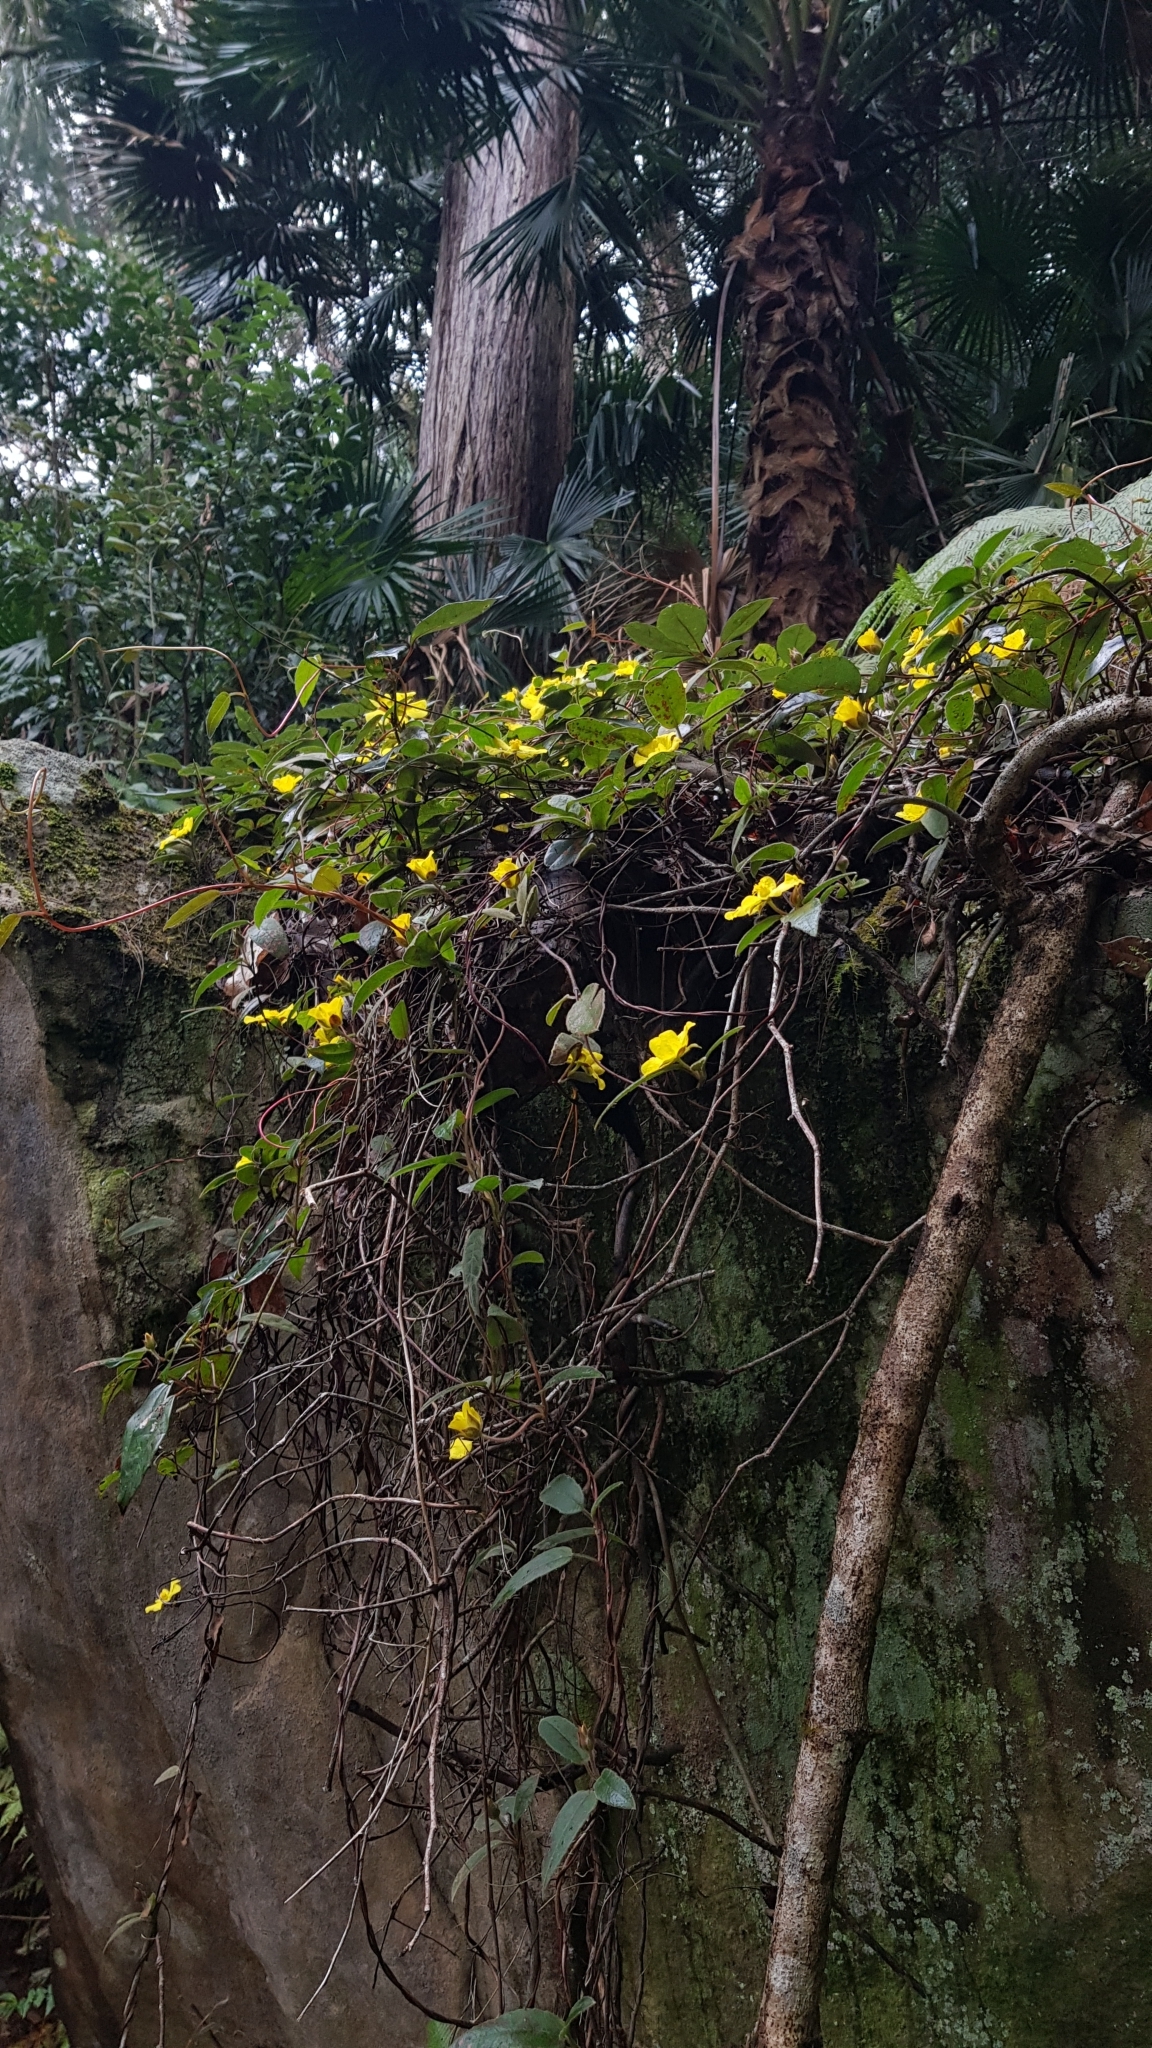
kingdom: Plantae
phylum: Tracheophyta
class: Magnoliopsida
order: Dilleniales
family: Dilleniaceae
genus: Hibbertia
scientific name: Hibbertia dentata
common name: Trailing guinea-flower
